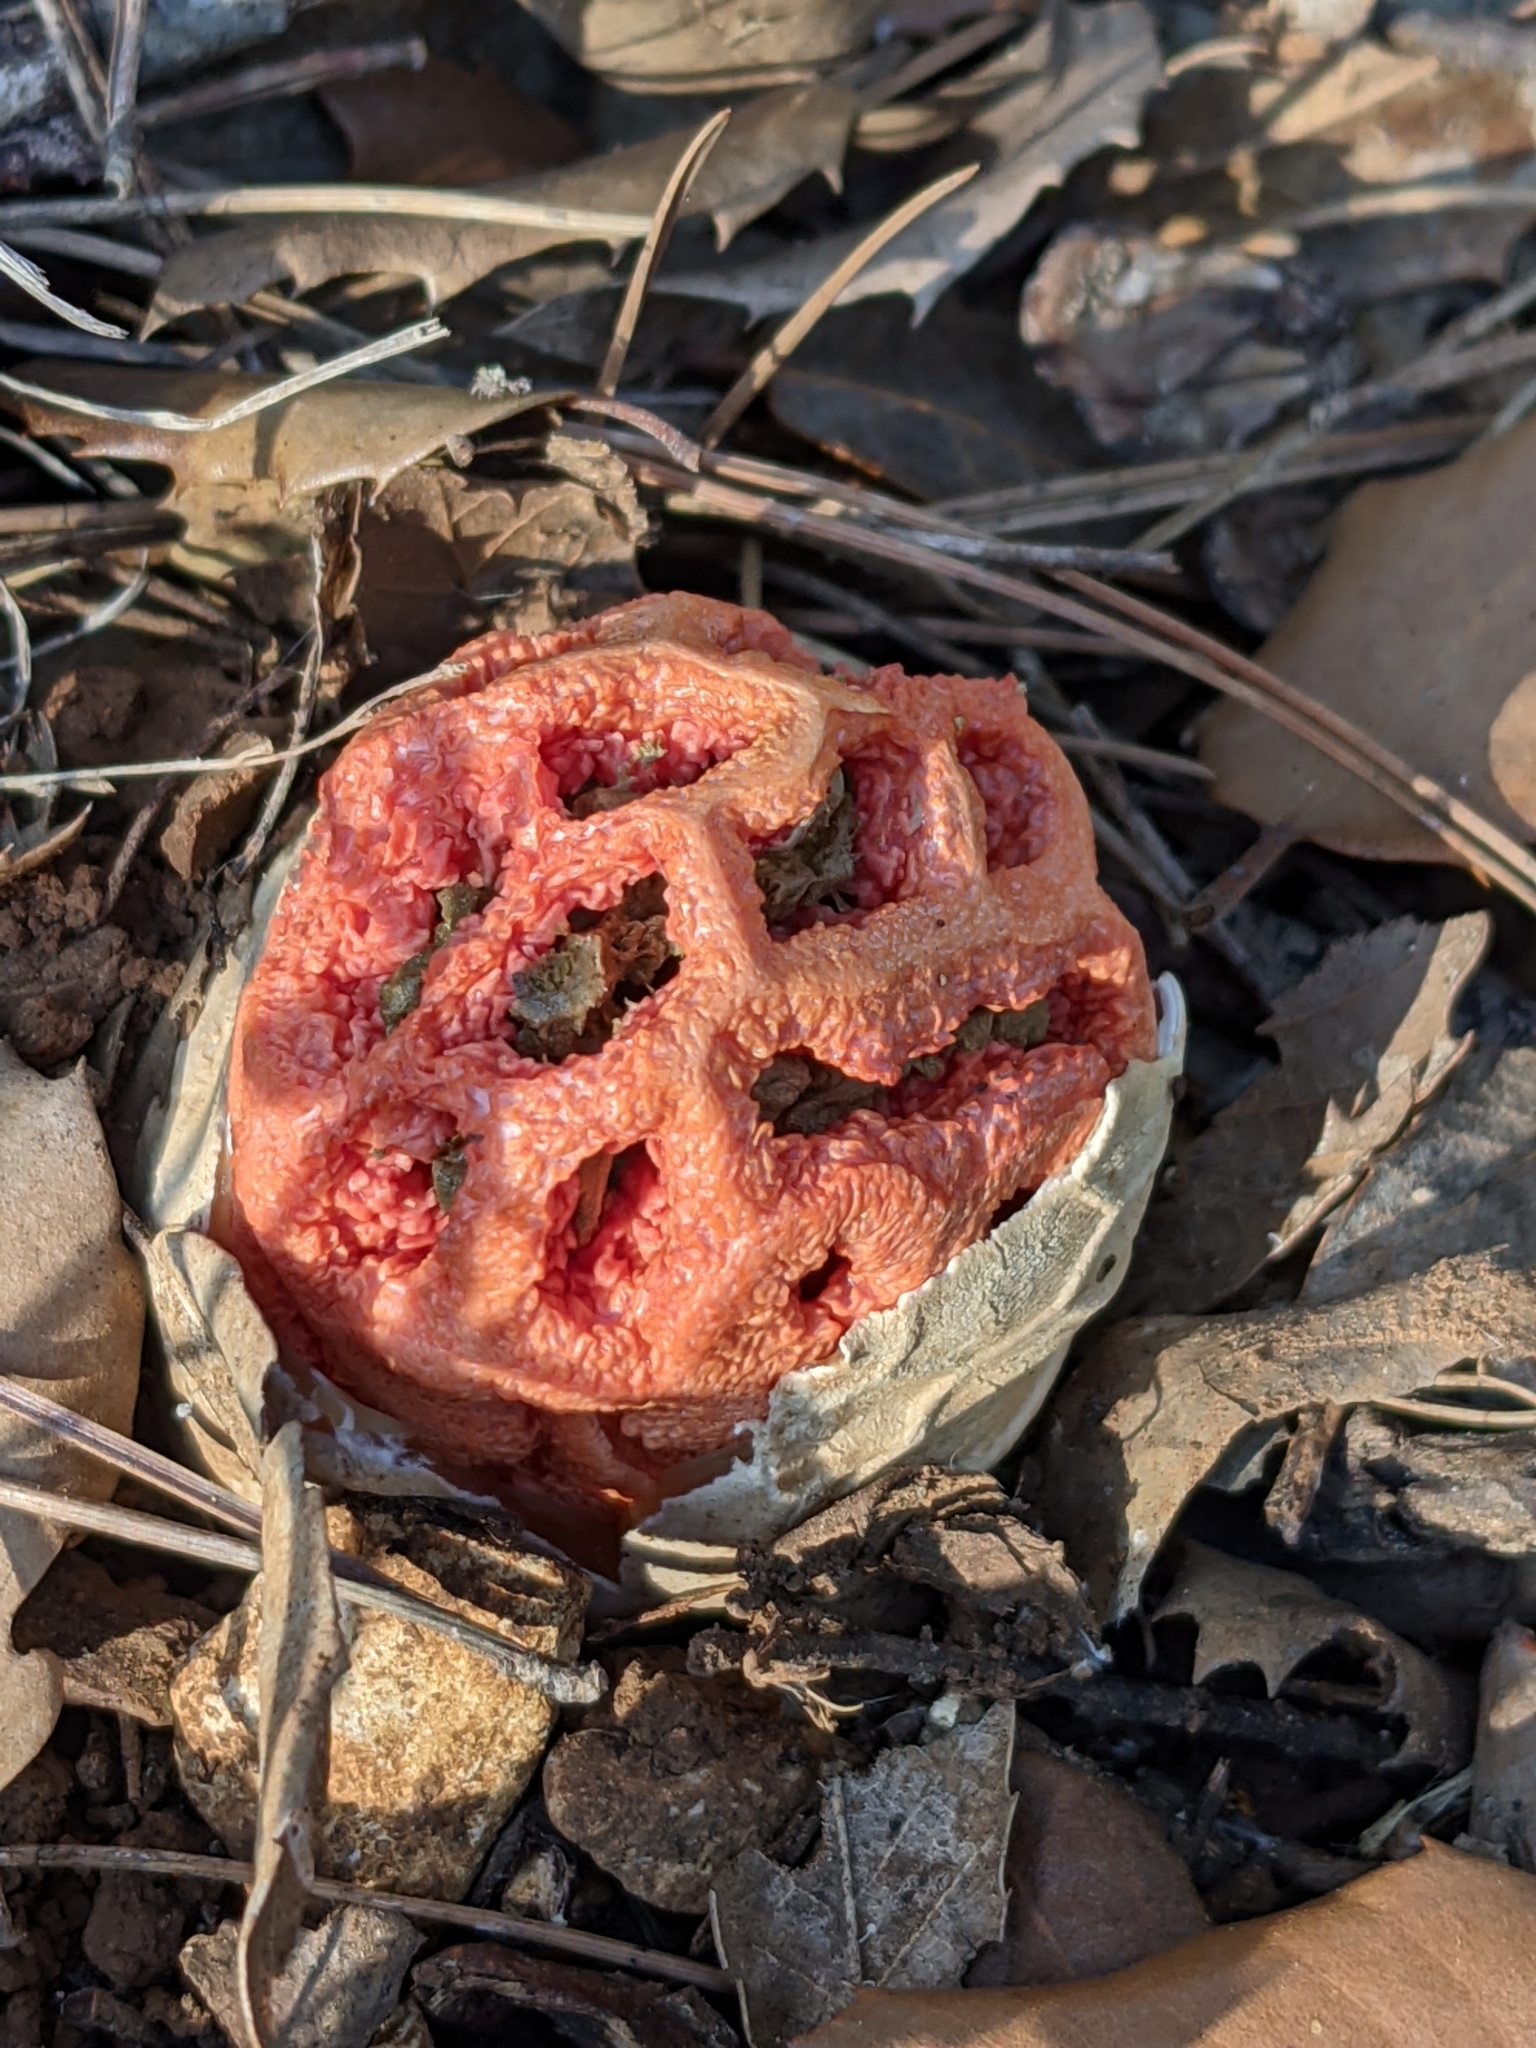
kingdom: Fungi
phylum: Basidiomycota
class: Agaricomycetes
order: Phallales
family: Phallaceae
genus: Clathrus
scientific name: Clathrus ruber
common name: Red cage
